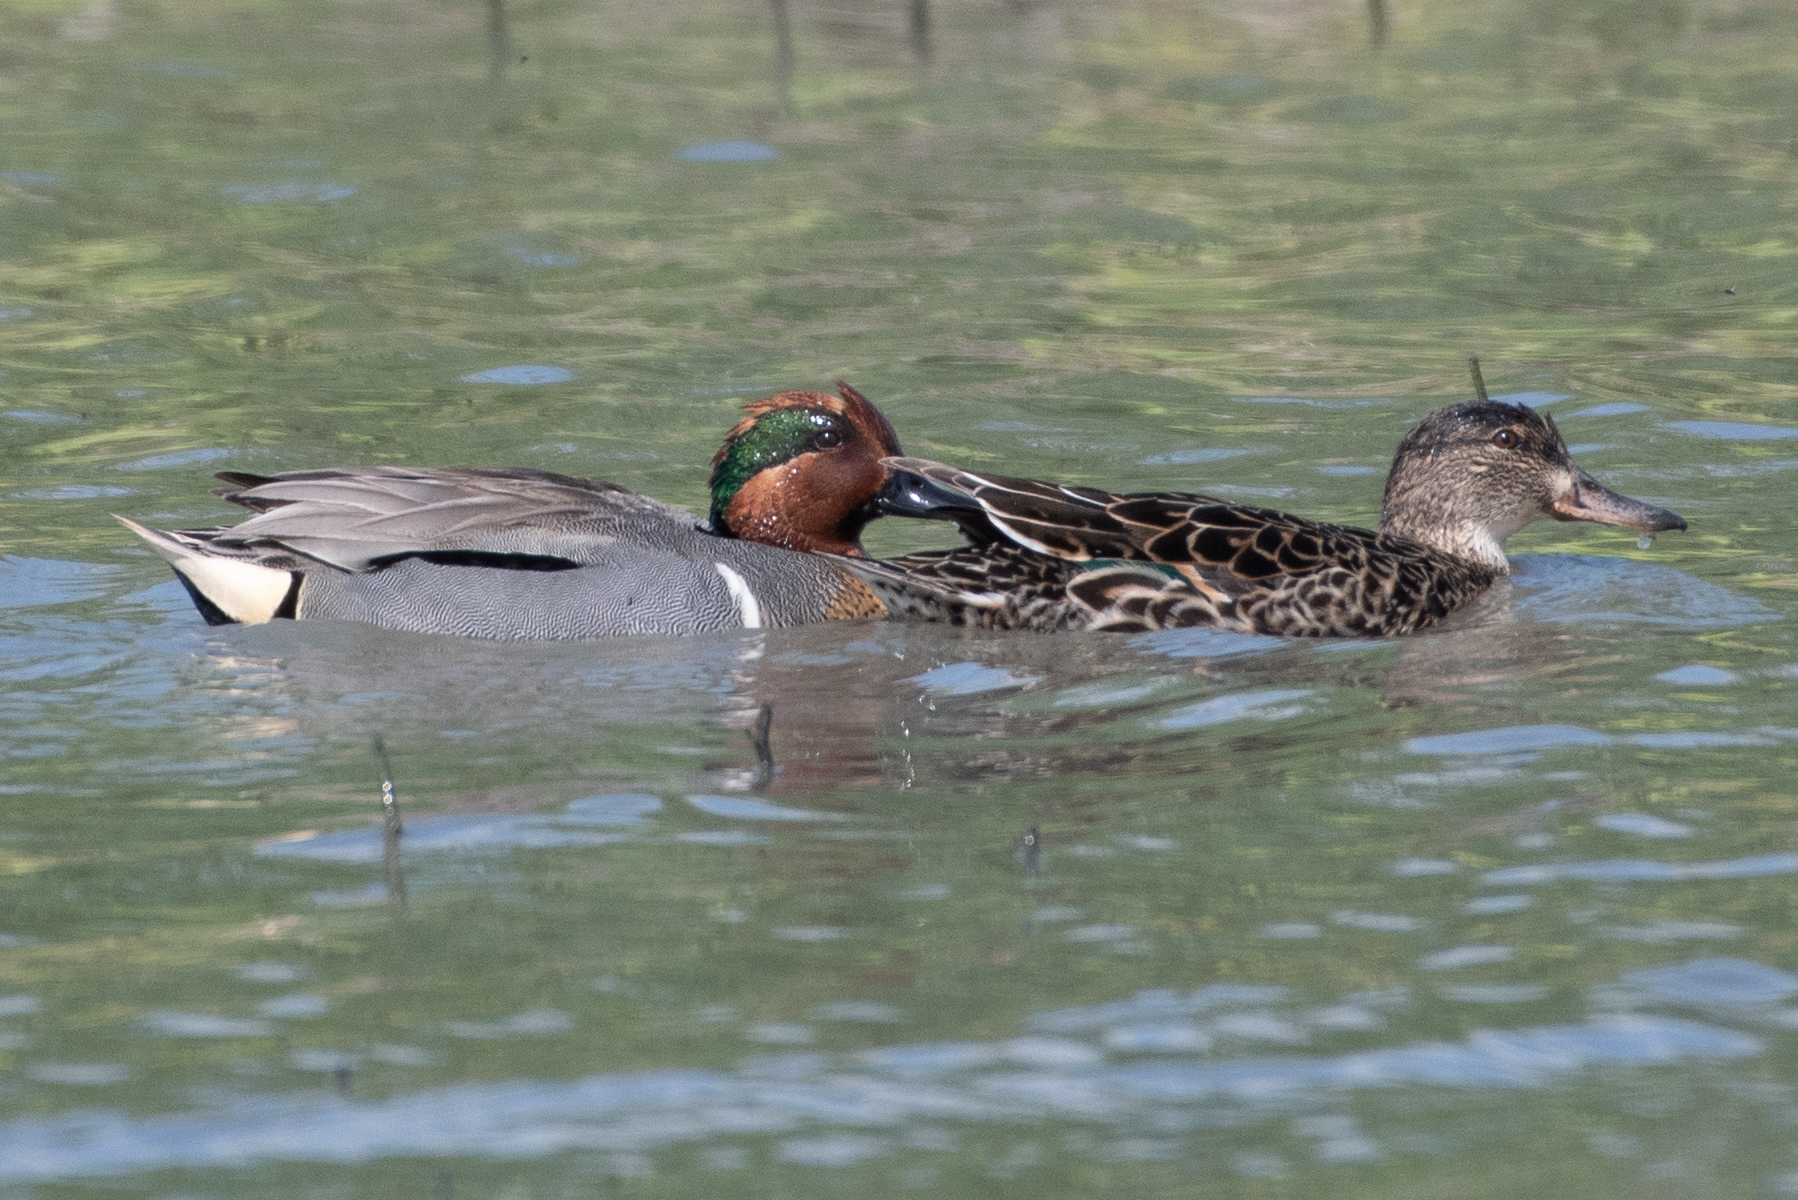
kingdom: Animalia
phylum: Chordata
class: Aves
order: Anseriformes
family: Anatidae
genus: Anas
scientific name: Anas crecca
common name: Eurasian teal
